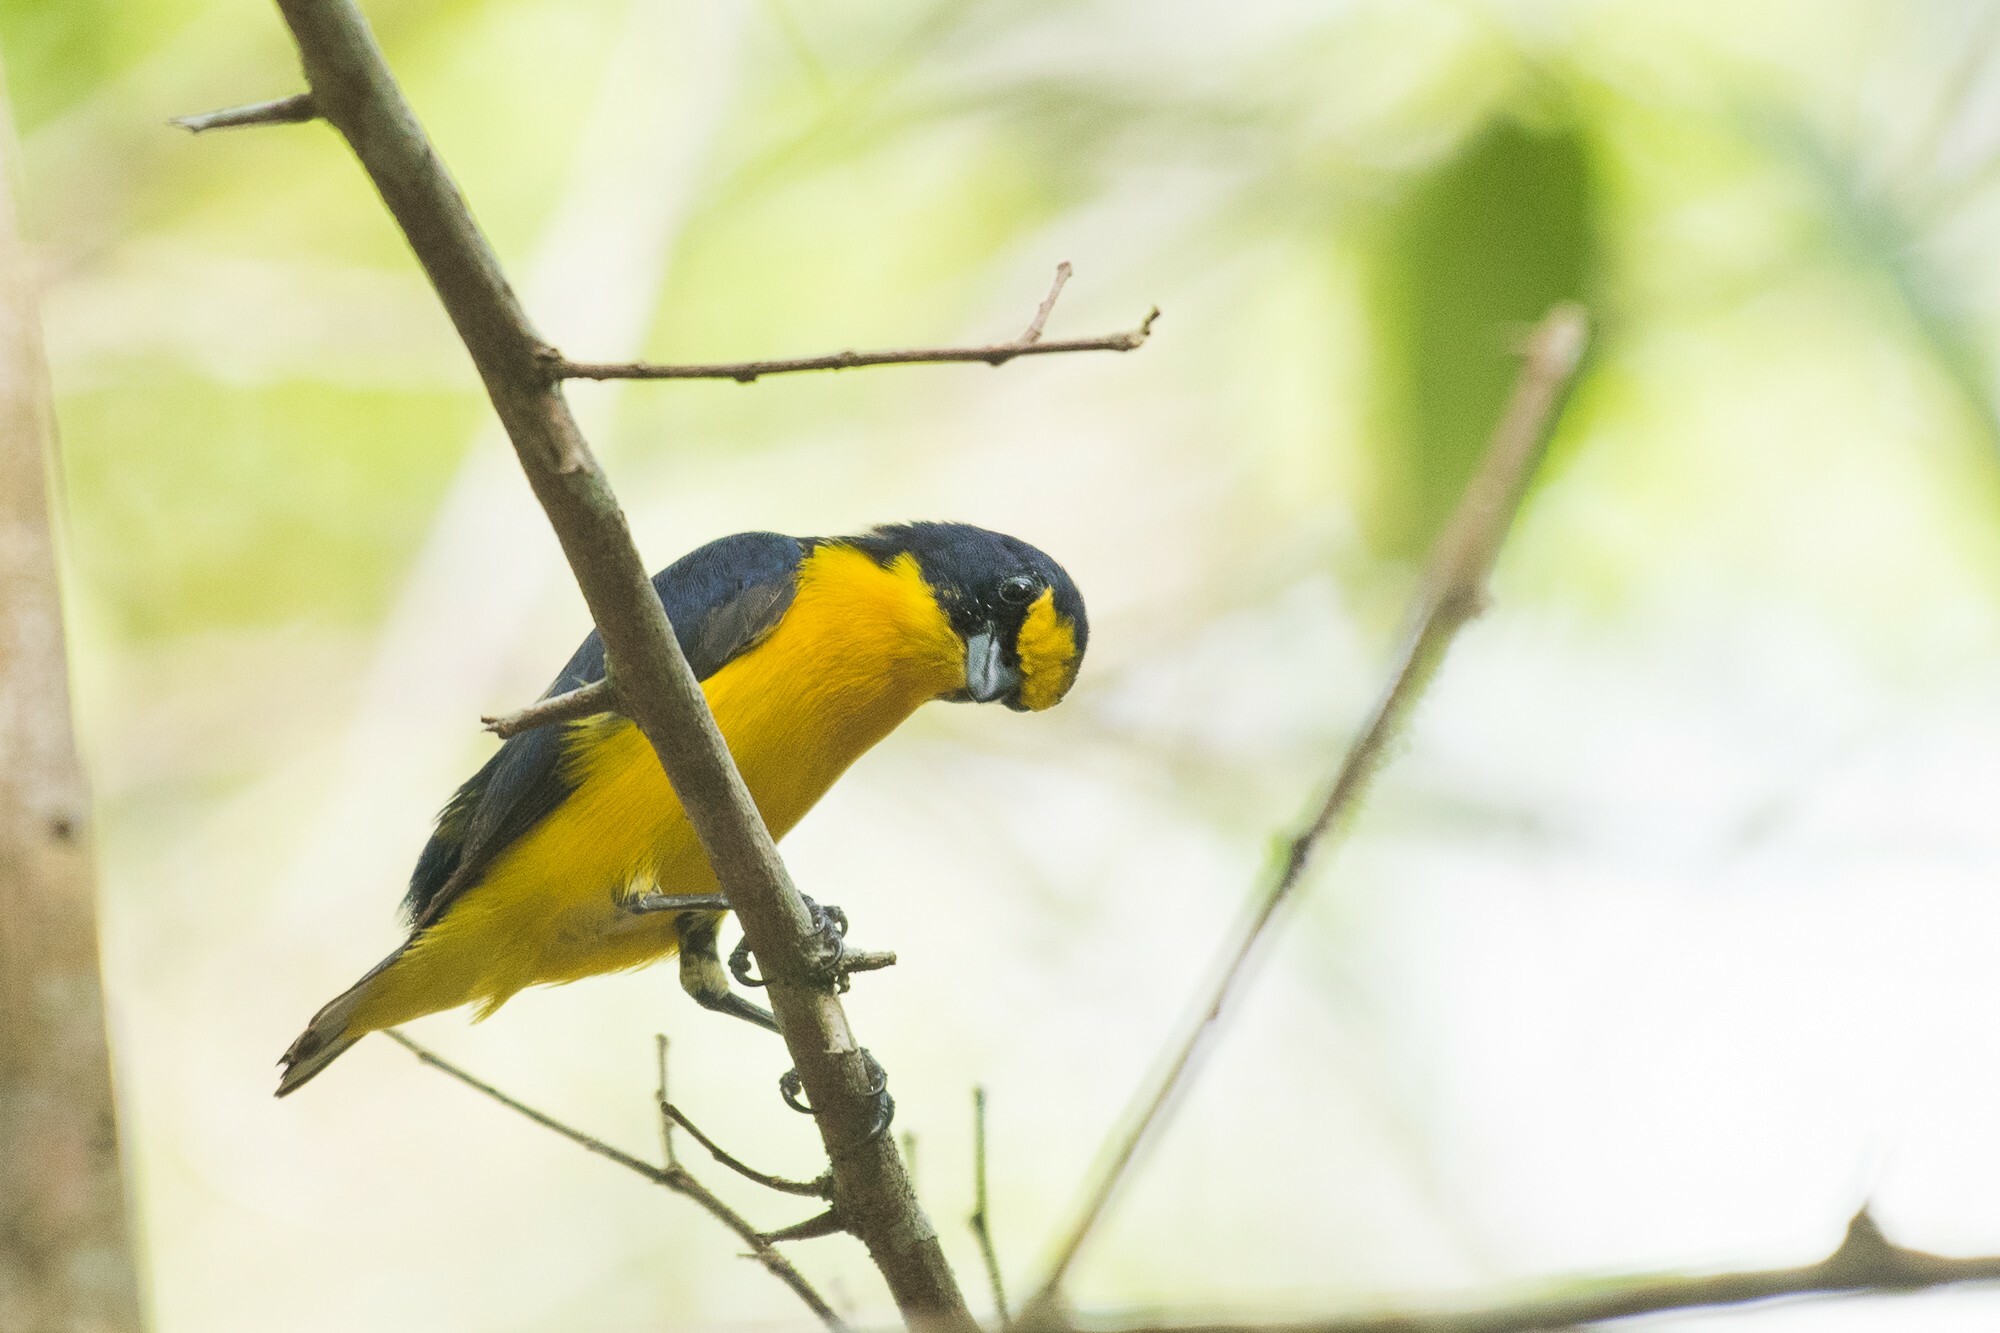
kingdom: Animalia
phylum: Chordata
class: Aves
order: Passeriformes
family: Fringillidae
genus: Euphonia
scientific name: Euphonia hirundinacea
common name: Yellow-throated euphonia
